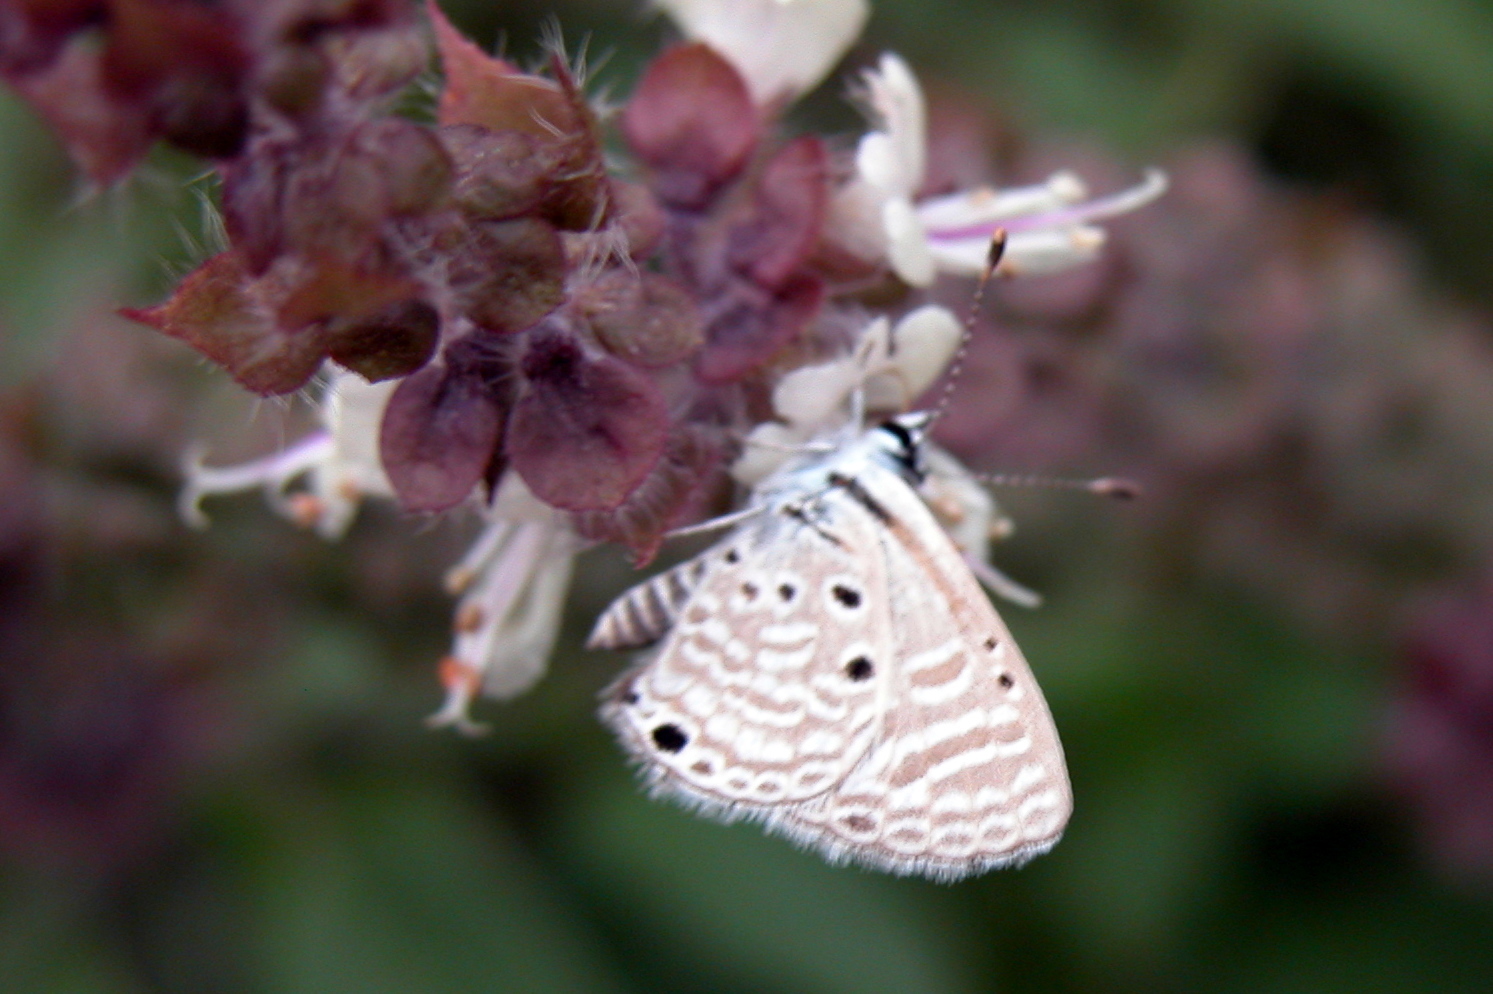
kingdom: Animalia
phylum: Arthropoda
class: Insecta
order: Lepidoptera
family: Lycaenidae
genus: Azanus
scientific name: Azanus ubaldus
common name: Desert babul blue
